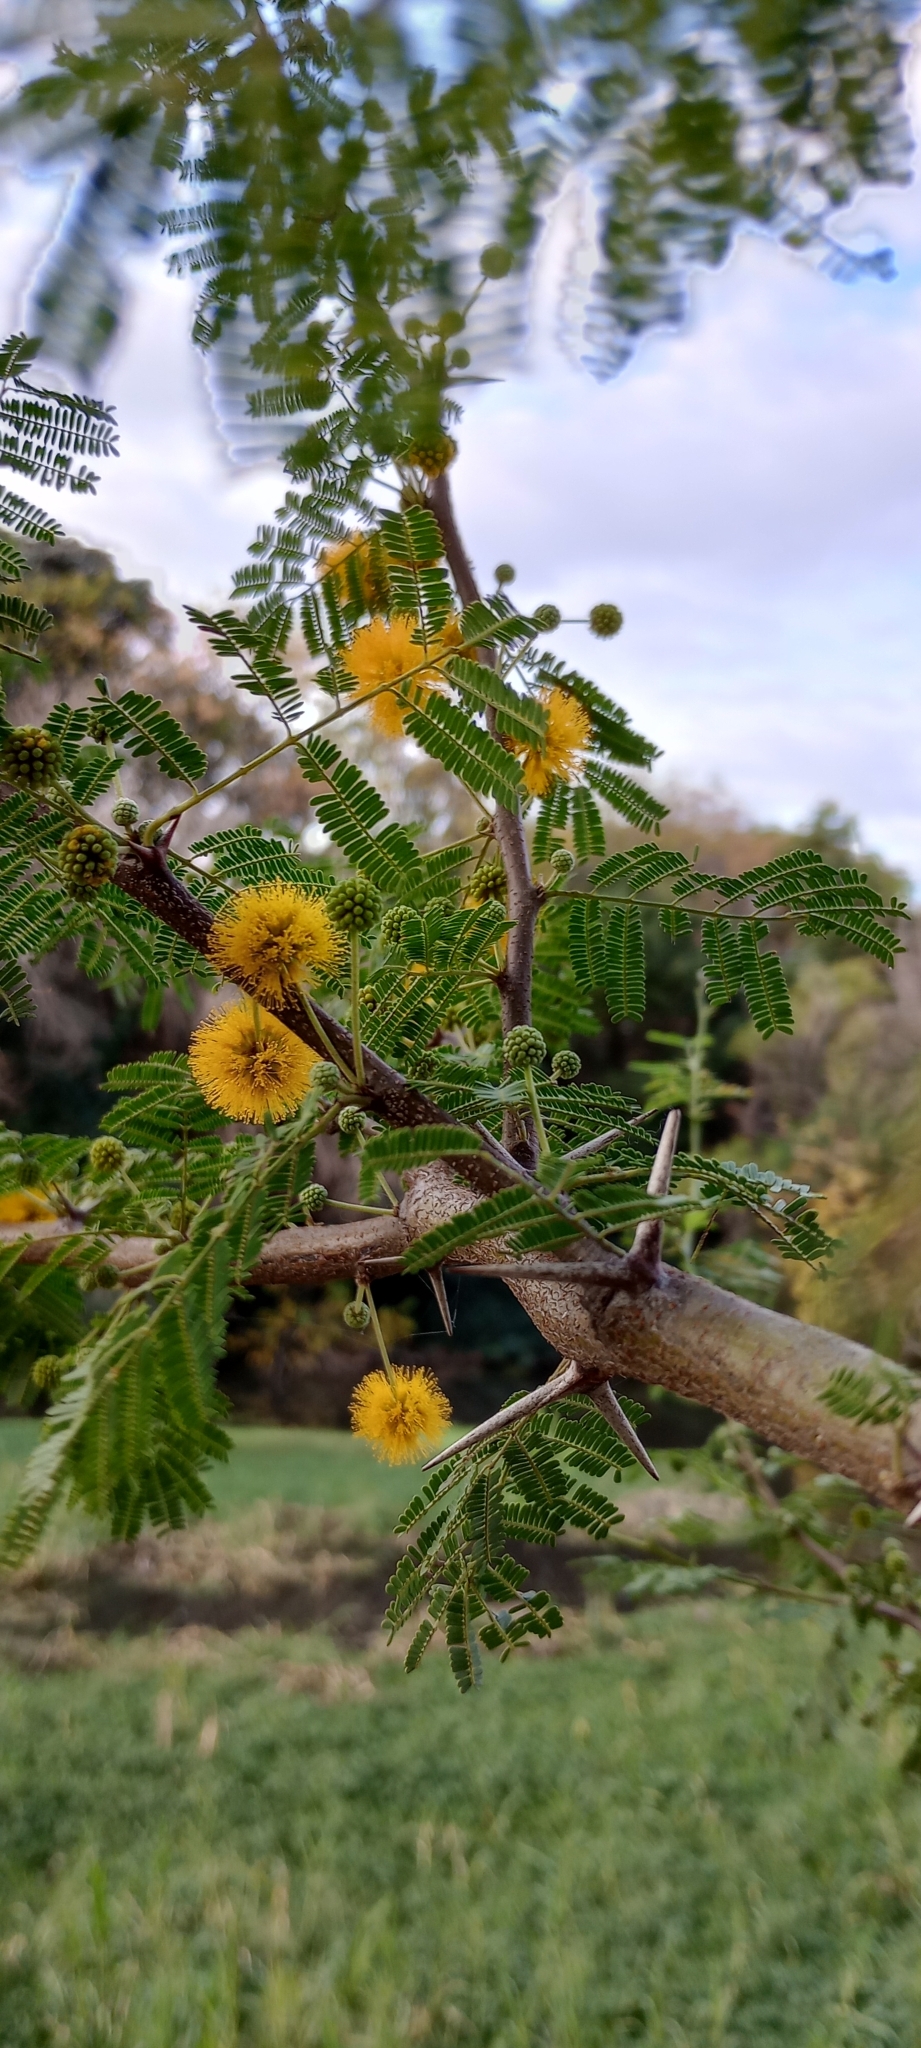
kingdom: Plantae
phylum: Tracheophyta
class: Magnoliopsida
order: Fabales
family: Fabaceae
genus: Vachellia
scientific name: Vachellia caven
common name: Roman cassie
